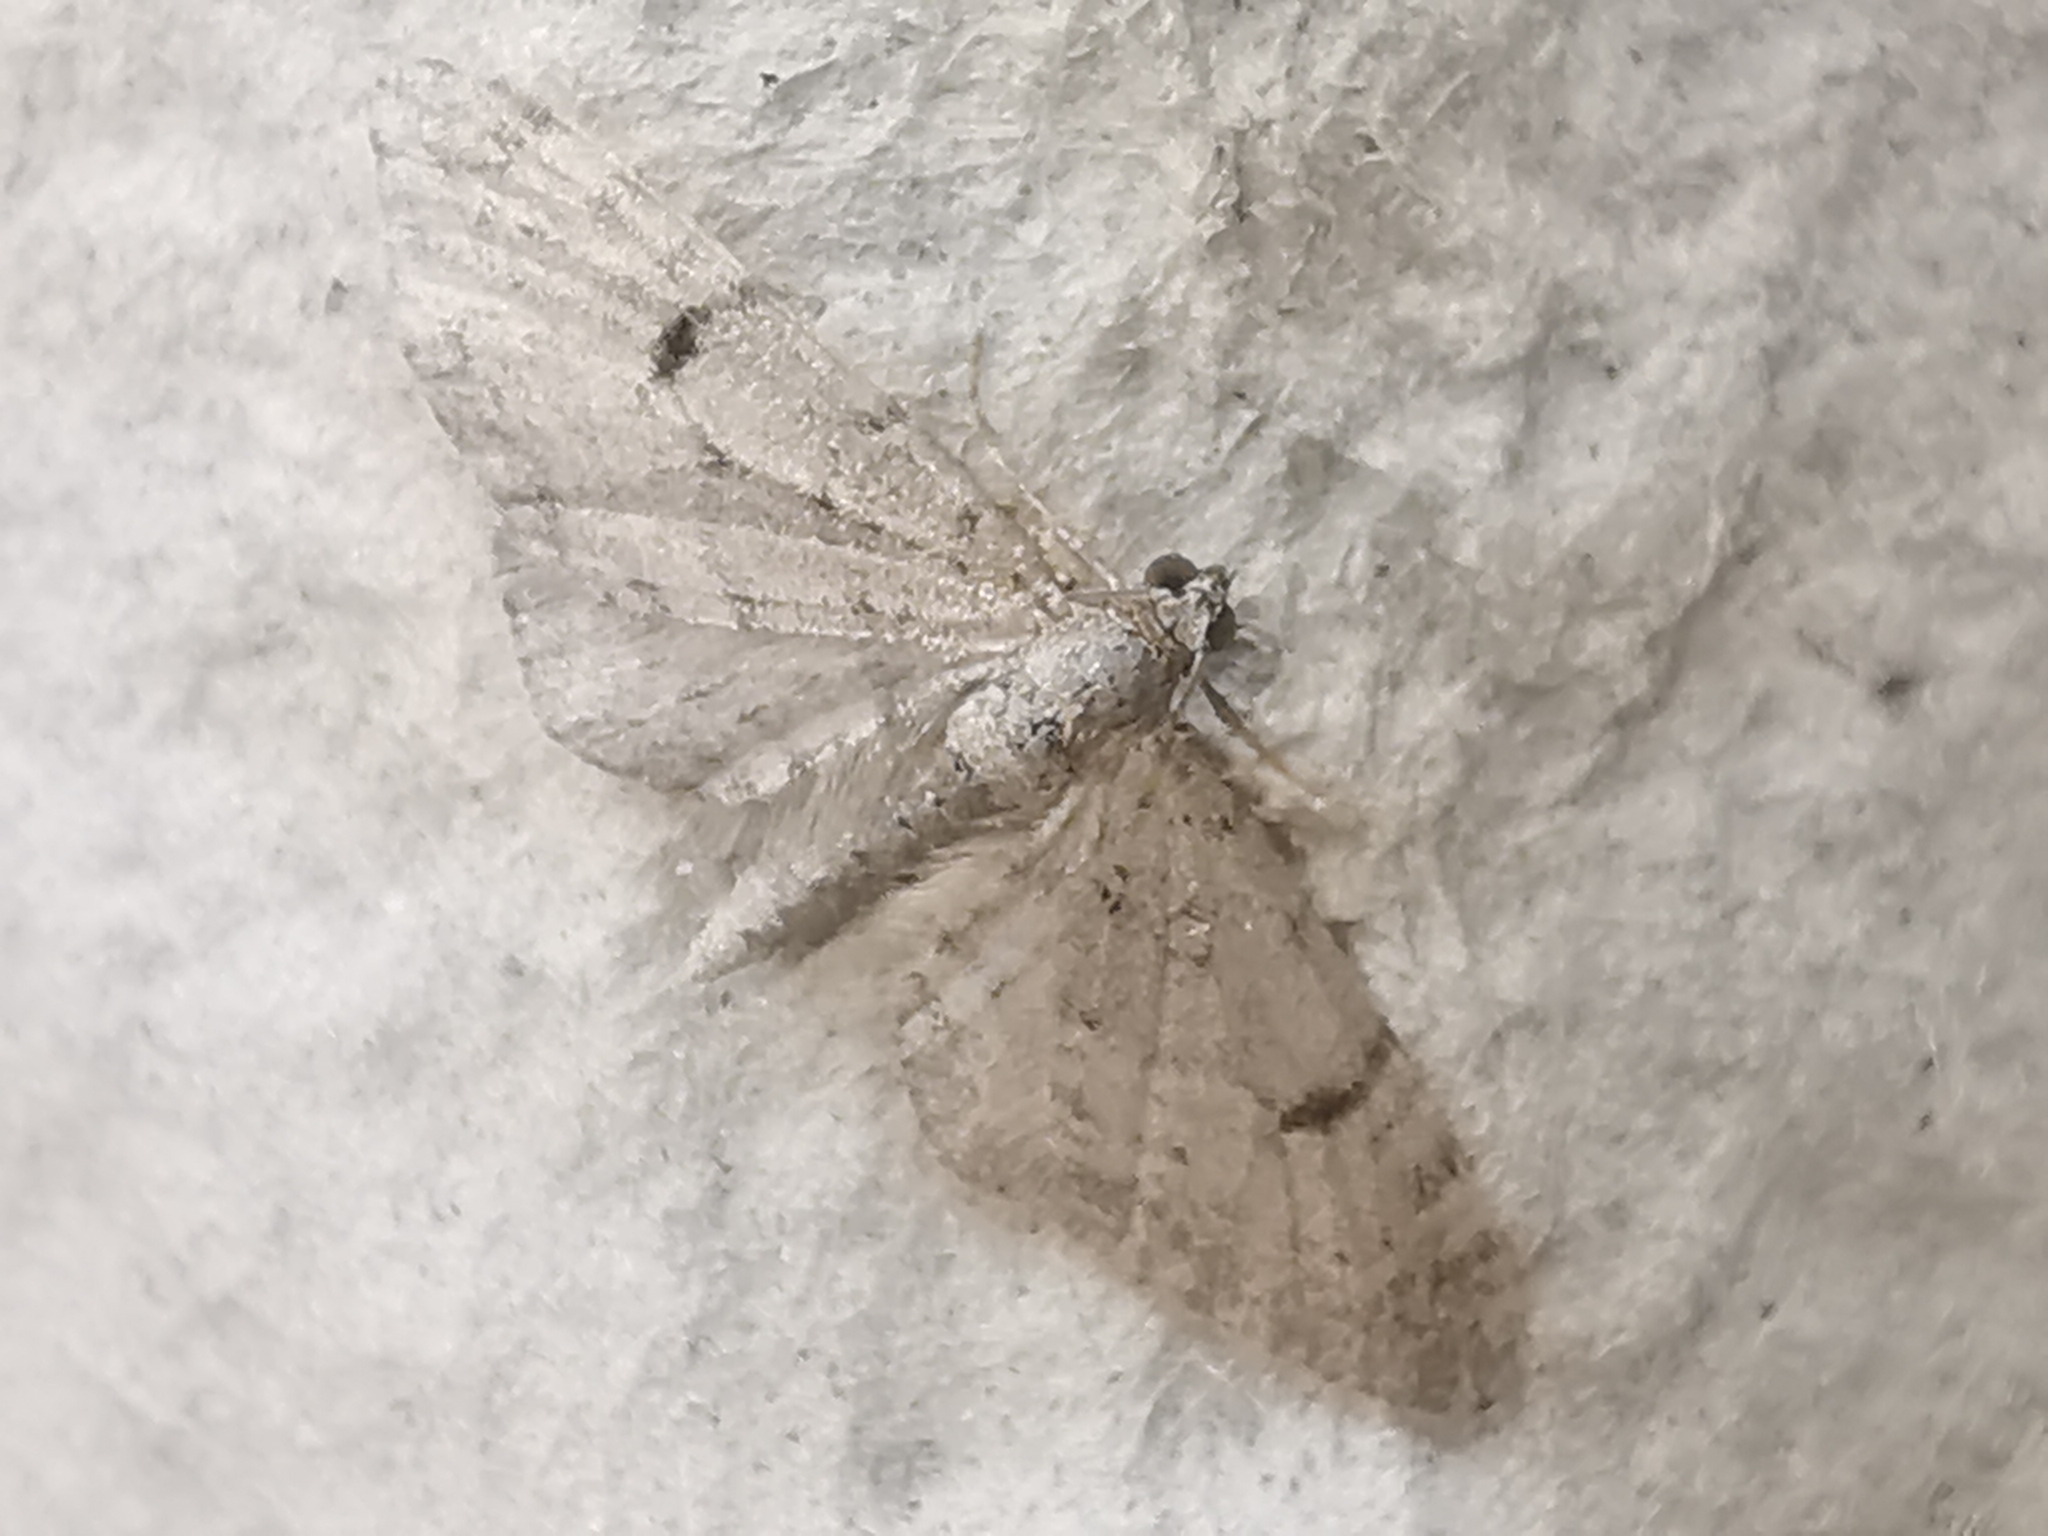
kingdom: Animalia
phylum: Arthropoda
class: Insecta
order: Lepidoptera
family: Geometridae
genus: Eupithecia
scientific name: Eupithecia absinthiata
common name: Wormwood pug
